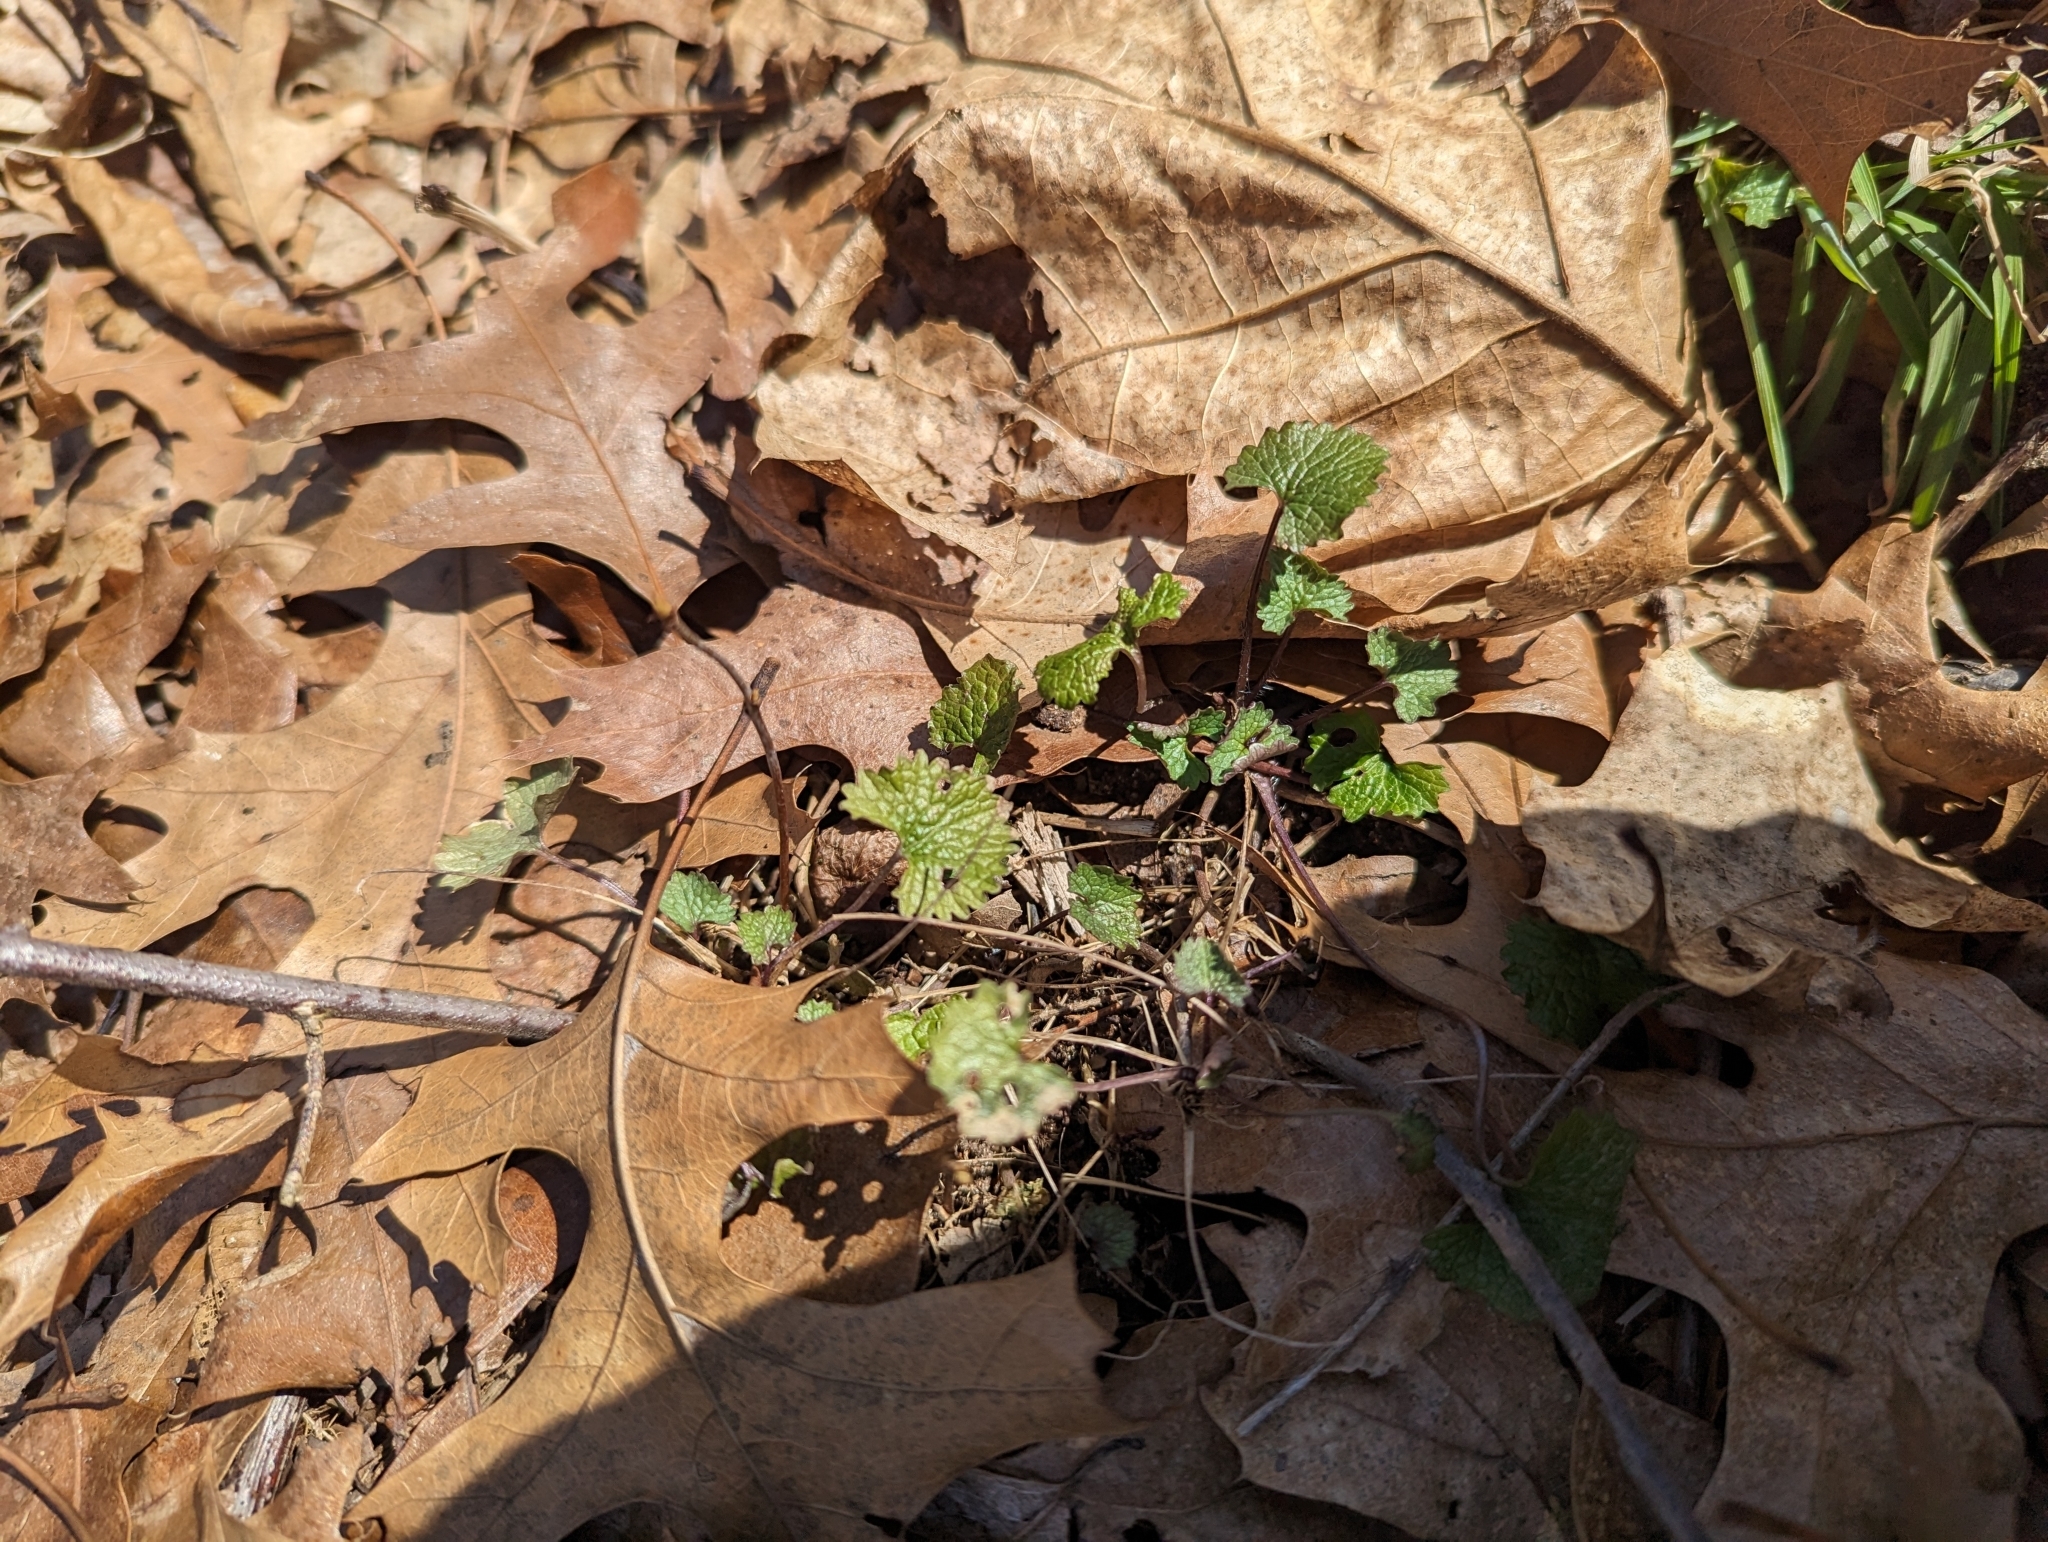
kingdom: Plantae
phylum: Tracheophyta
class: Magnoliopsida
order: Brassicales
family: Brassicaceae
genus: Alliaria
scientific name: Alliaria petiolata
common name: Garlic mustard
